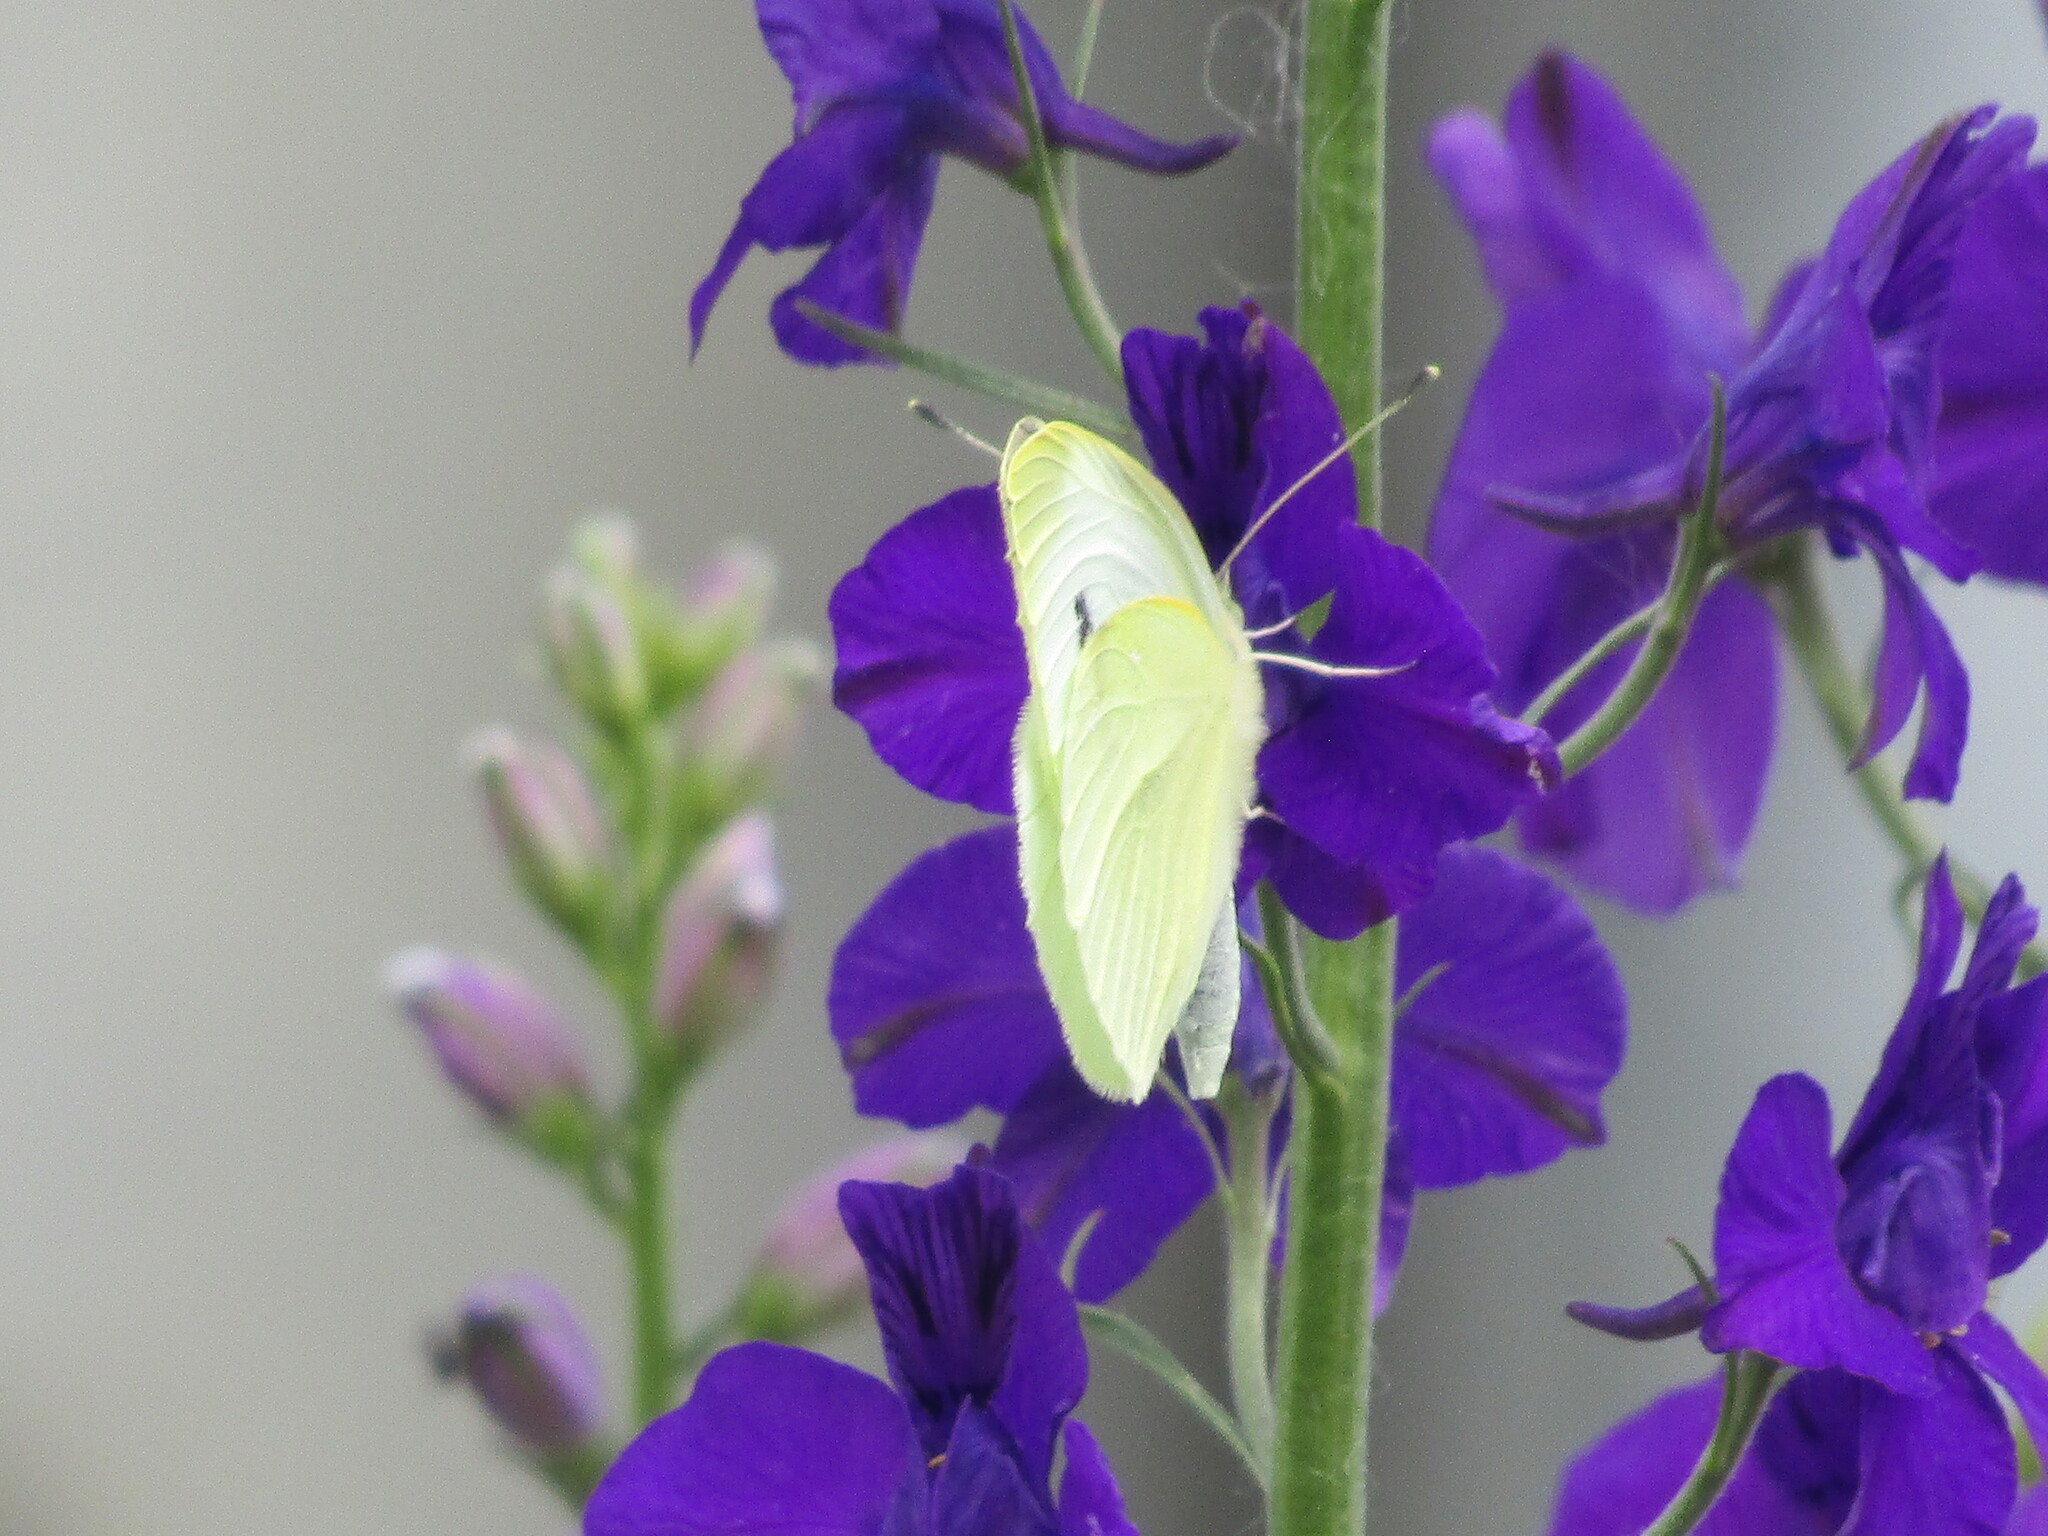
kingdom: Animalia
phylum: Arthropoda
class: Insecta
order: Lepidoptera
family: Pieridae
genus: Pieris
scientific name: Pieris rapae
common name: Small white
